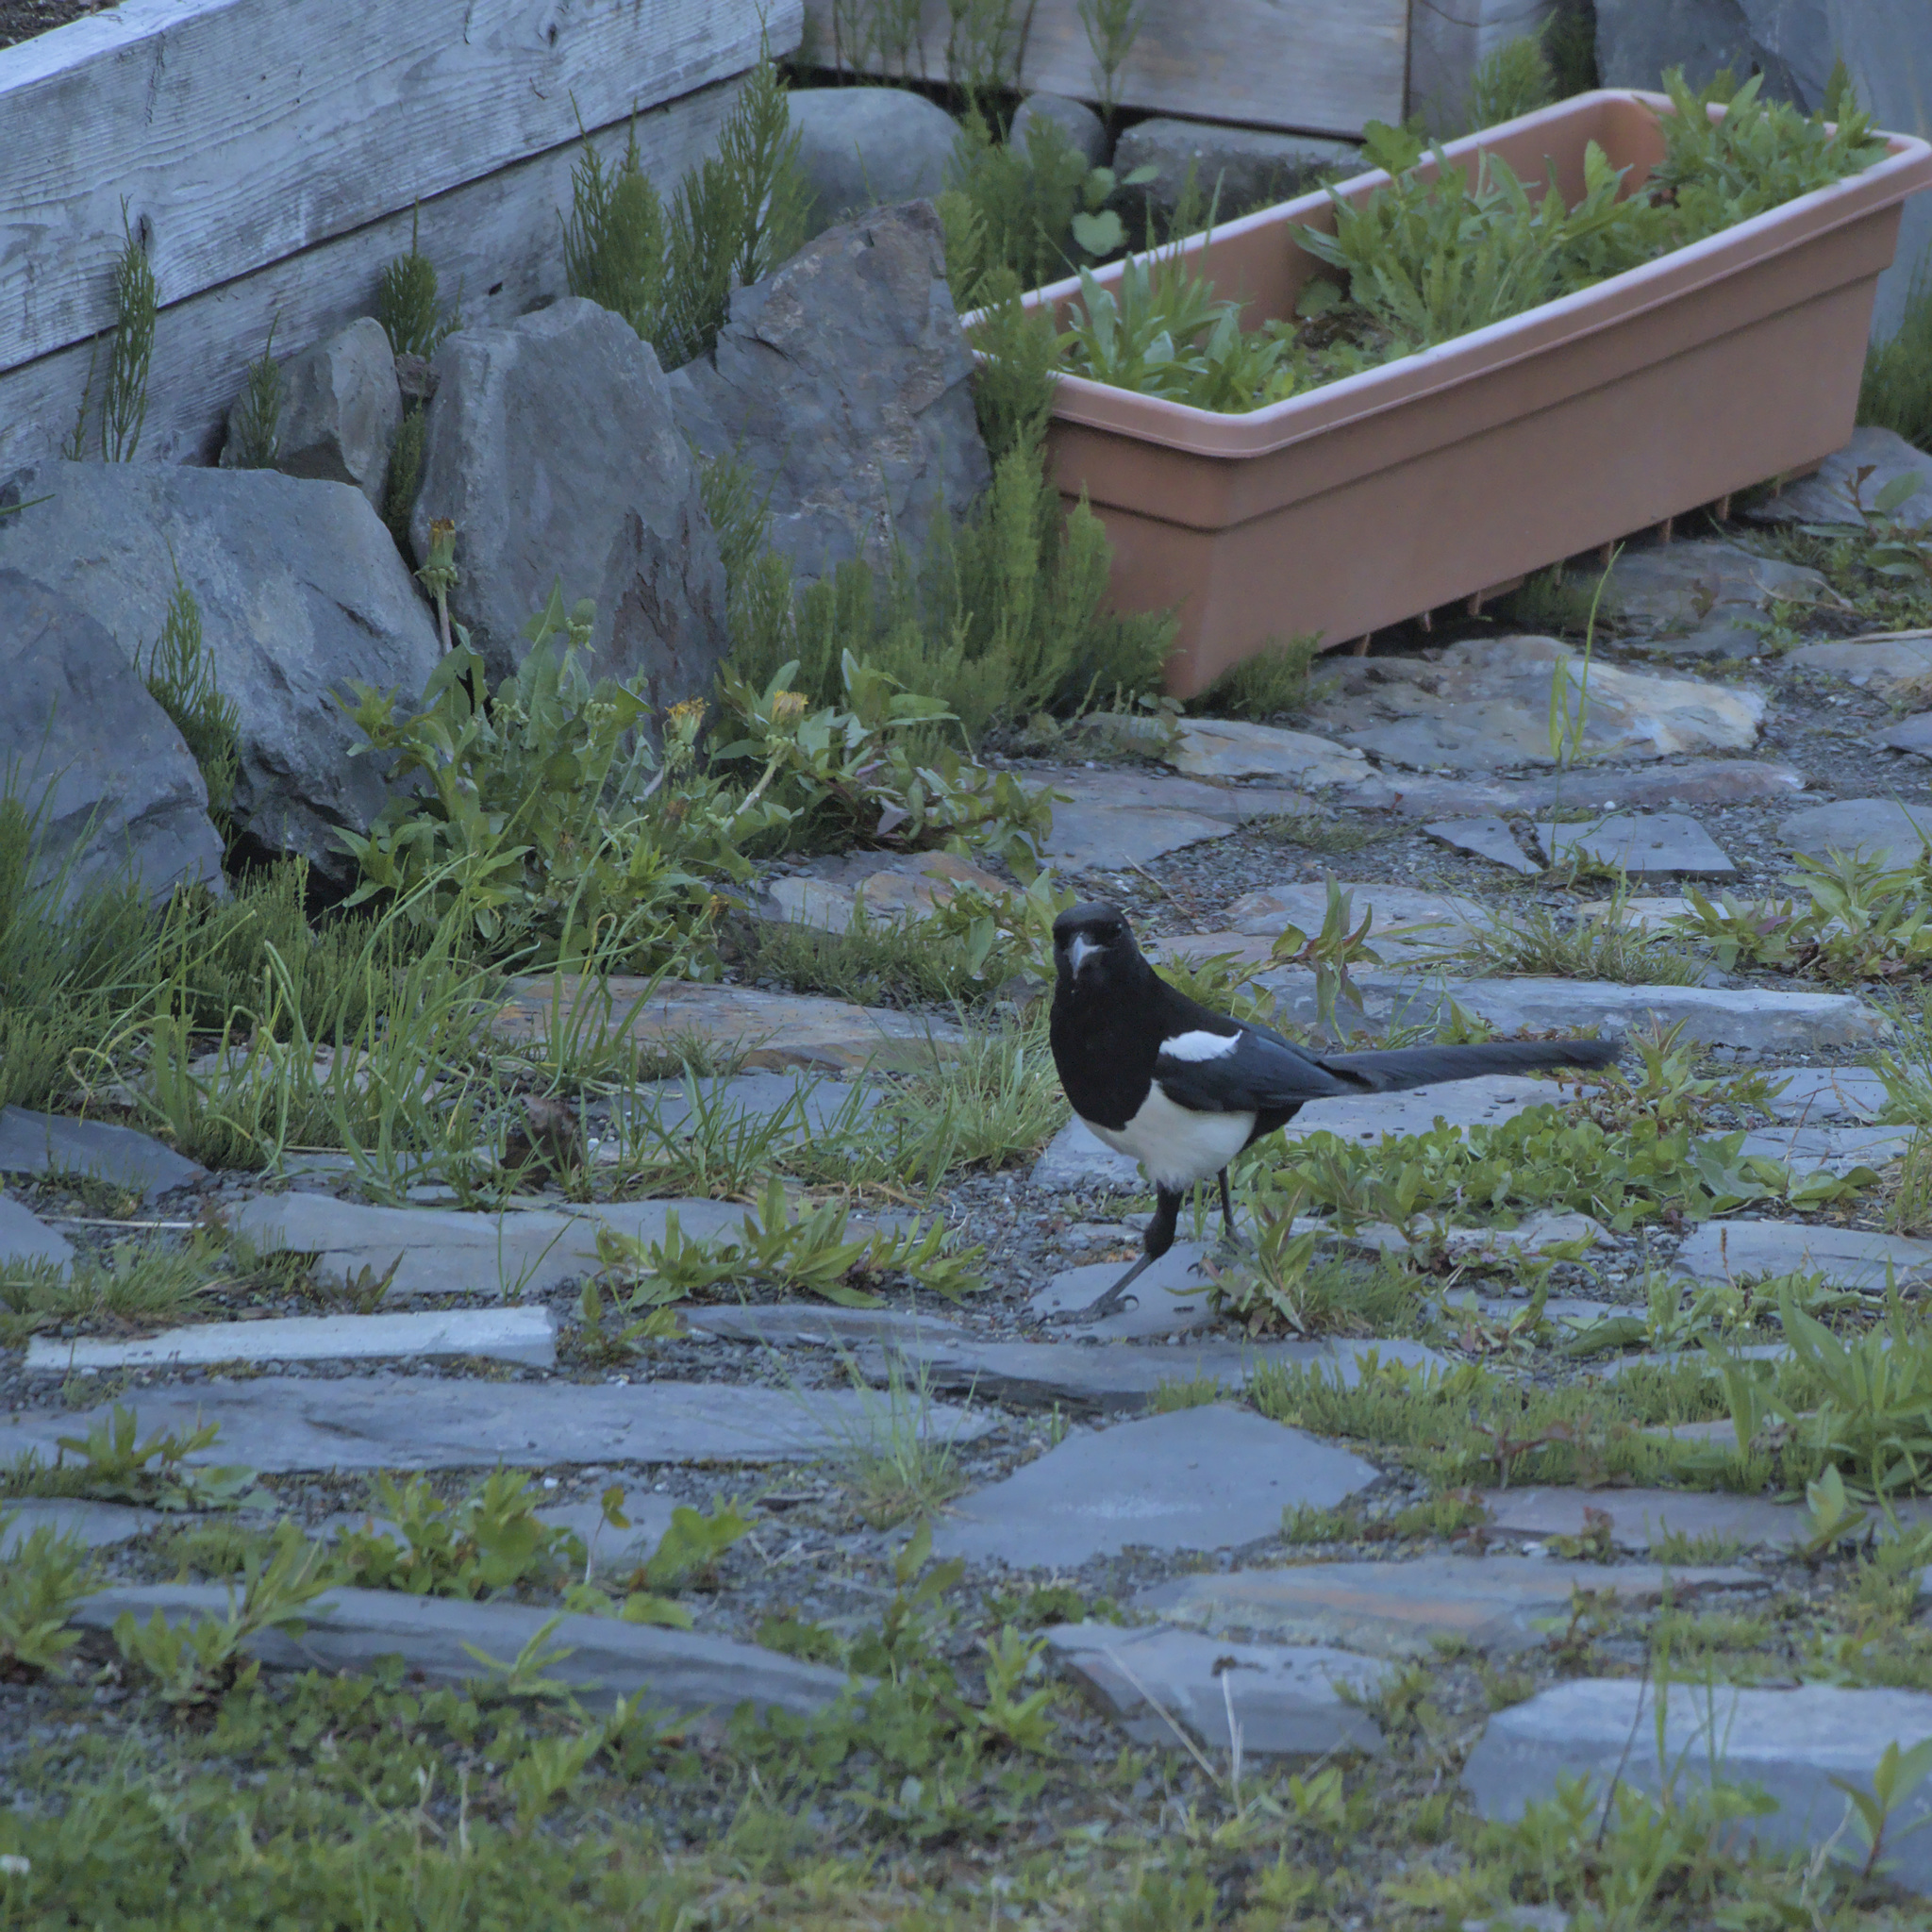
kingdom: Animalia
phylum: Chordata
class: Aves
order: Passeriformes
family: Corvidae
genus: Pica
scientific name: Pica hudsonia
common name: Black-billed magpie
